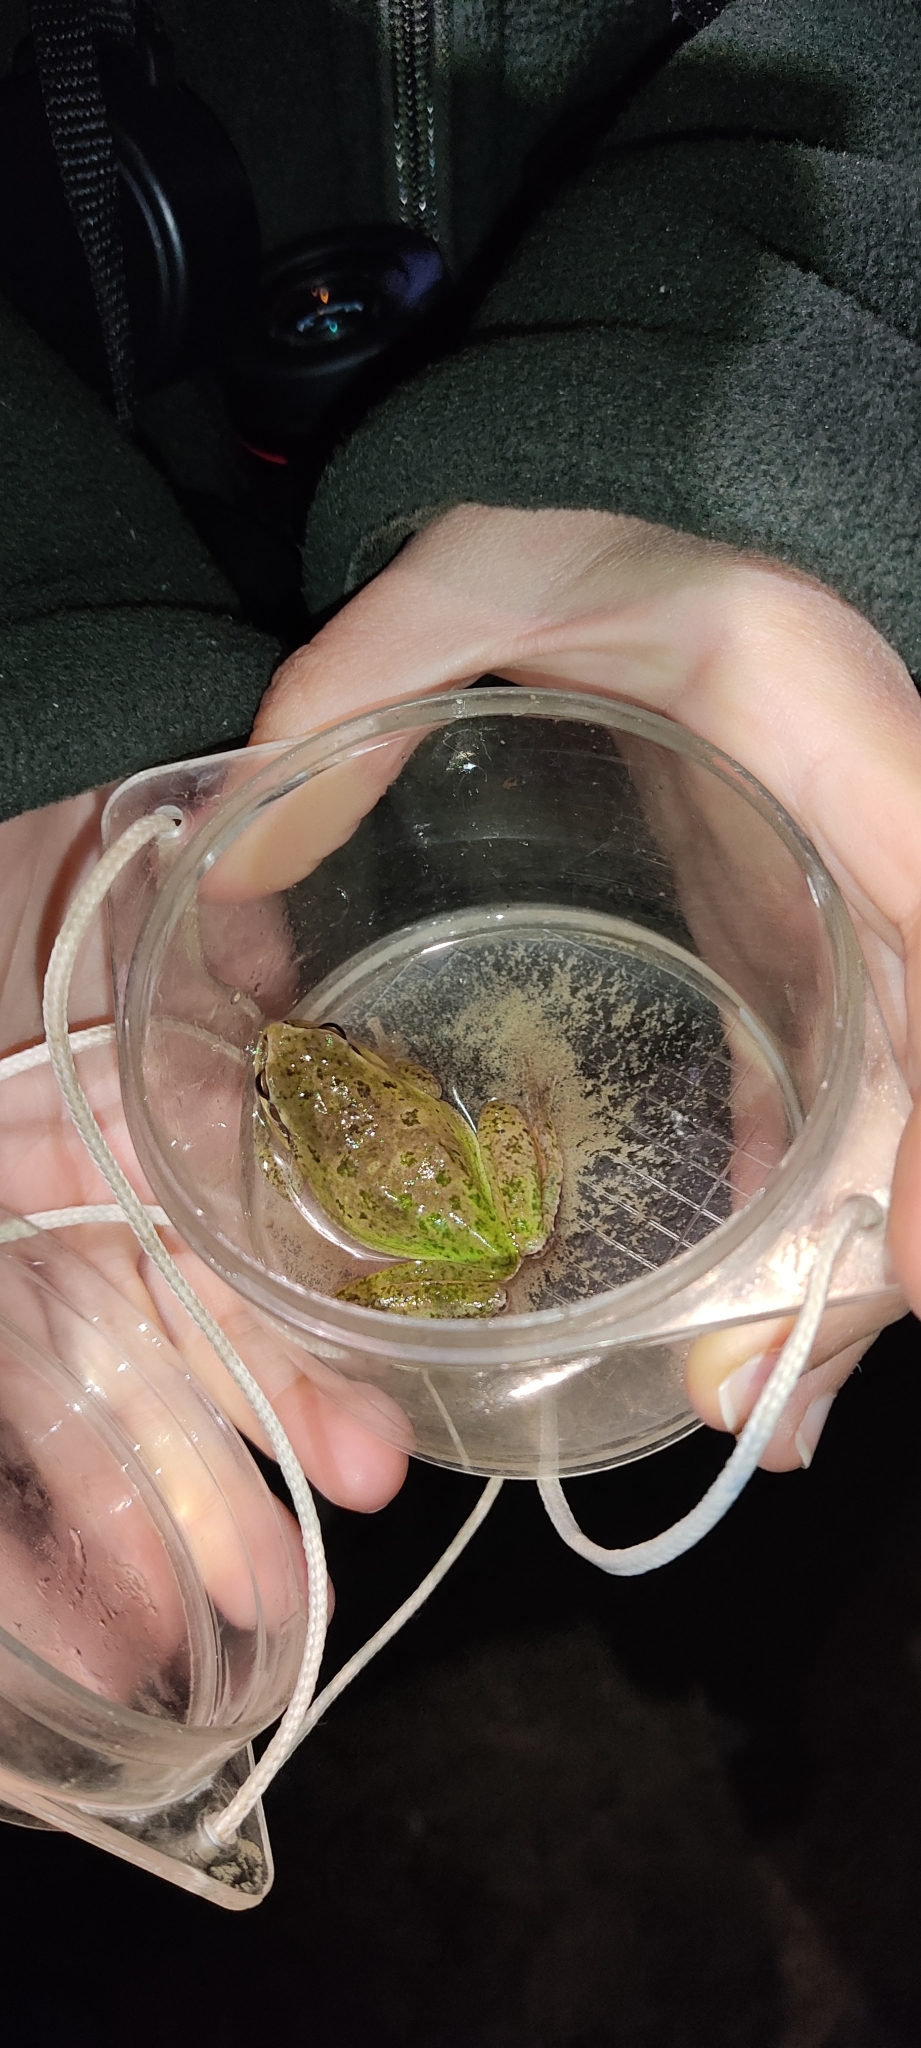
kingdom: Animalia
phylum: Chordata
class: Amphibia
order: Anura
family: Hylidae
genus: Hyla
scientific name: Hyla meridionalis
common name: Stripeless tree frog
